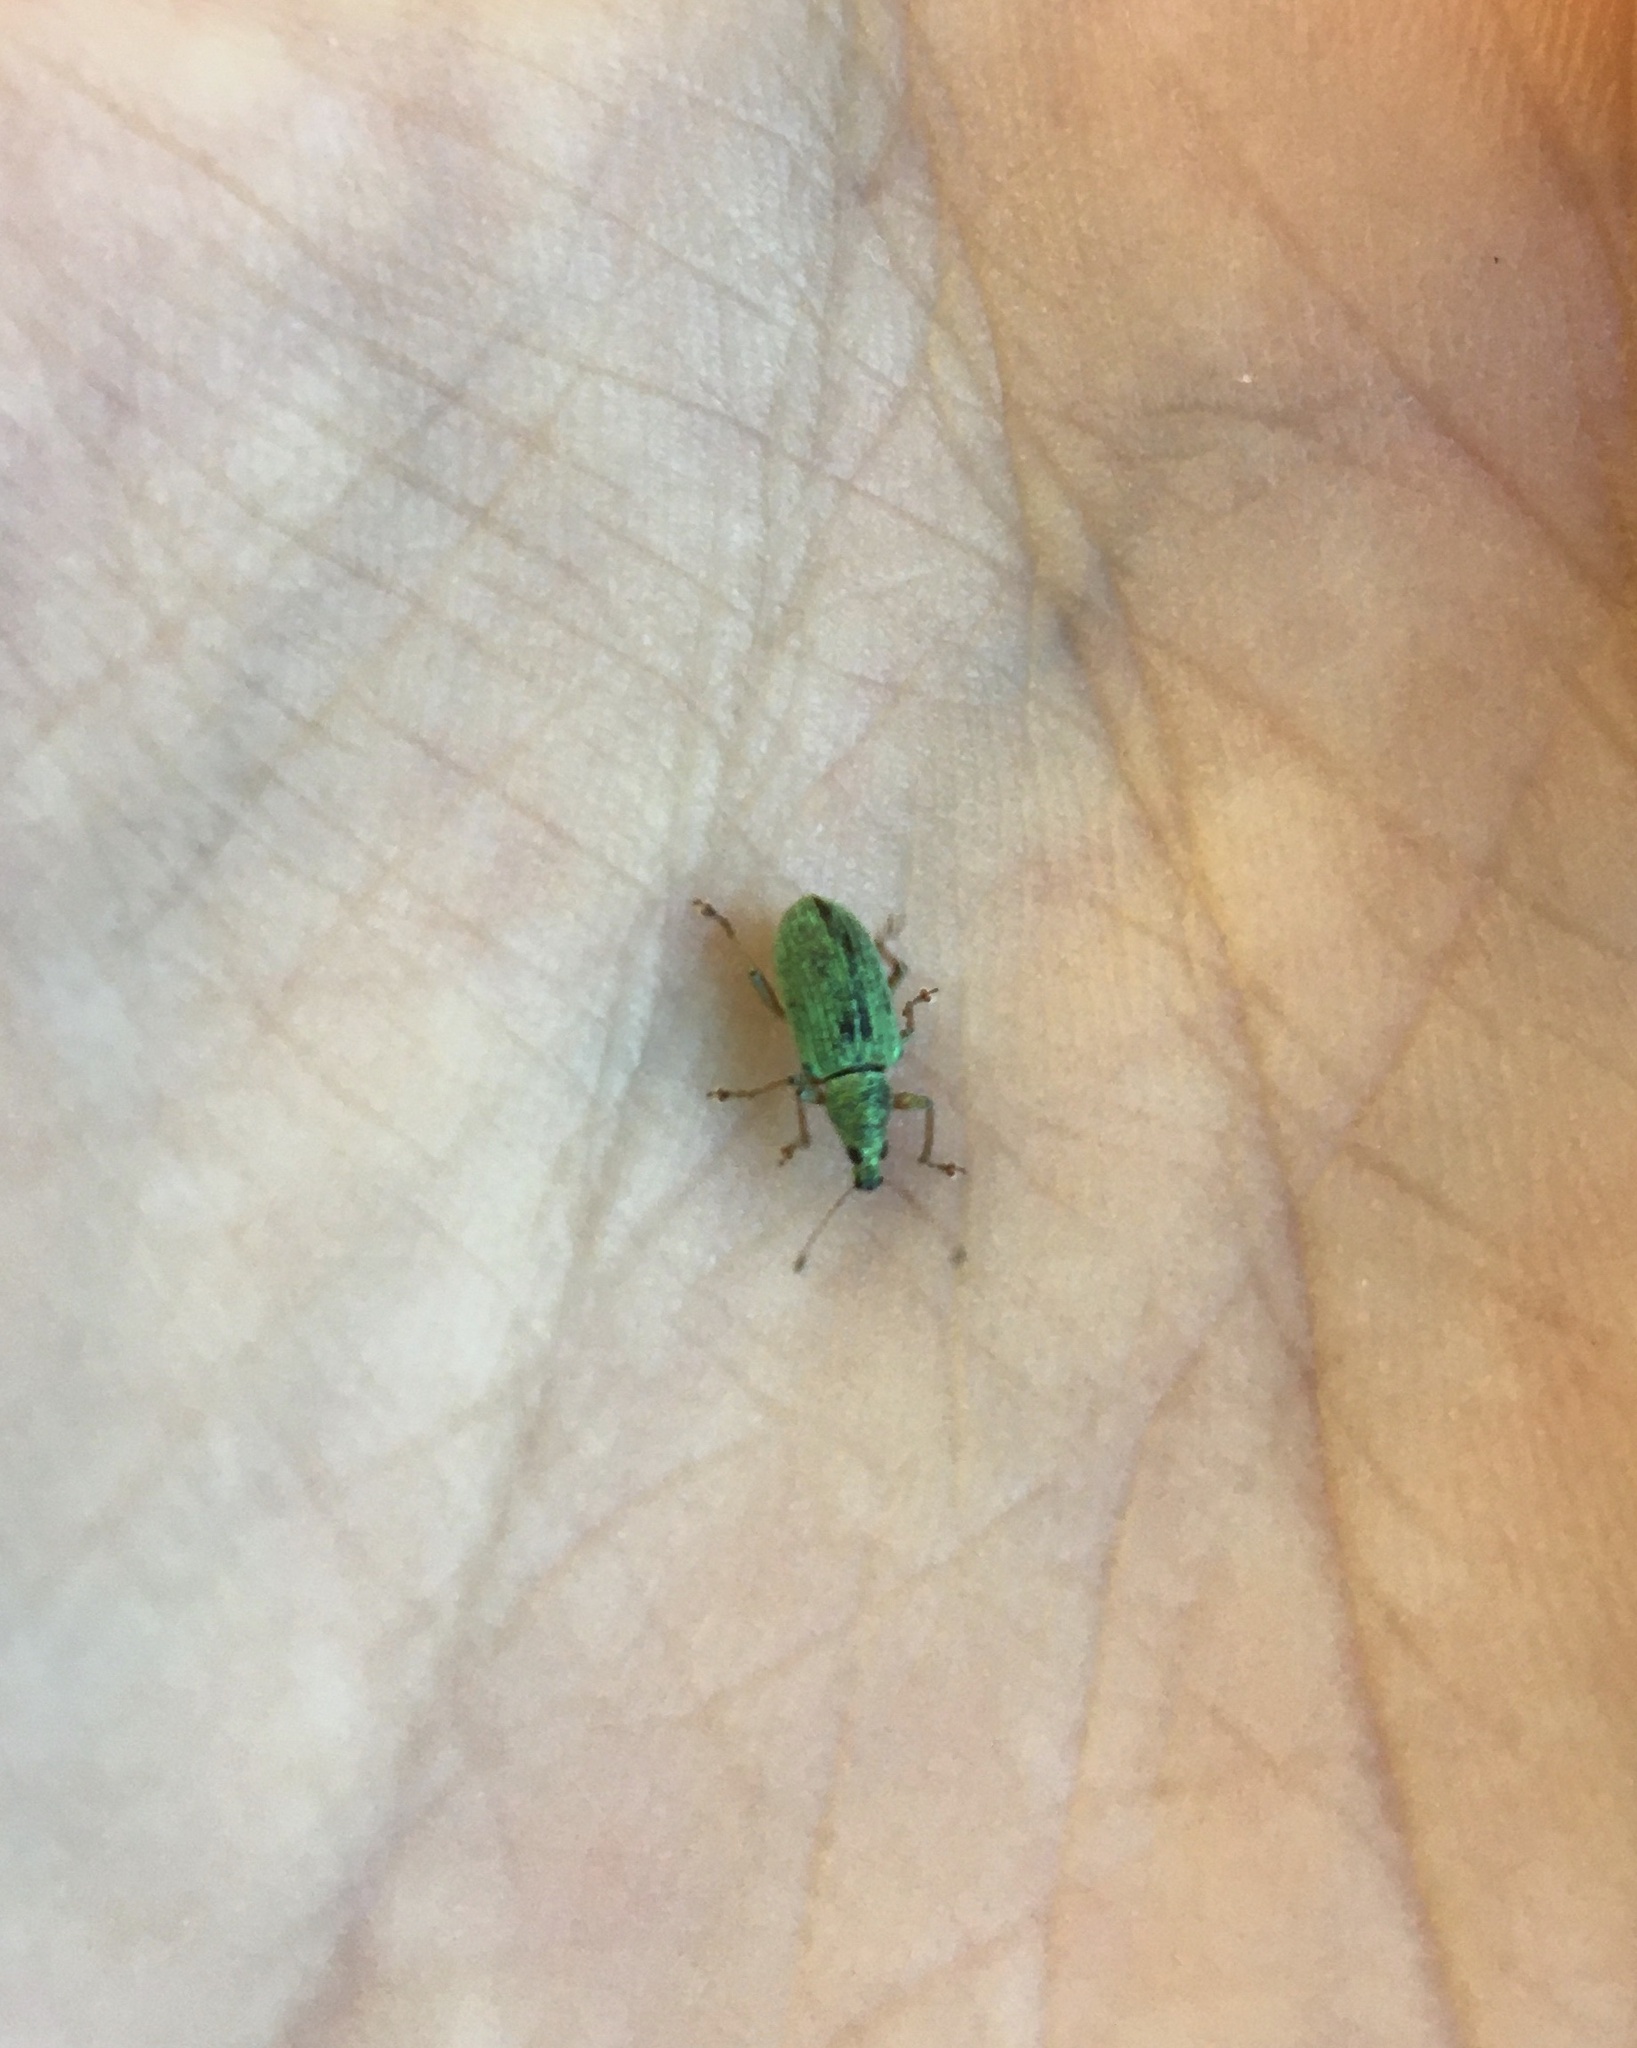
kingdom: Animalia
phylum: Arthropoda
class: Insecta
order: Coleoptera
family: Curculionidae
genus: Polydrusus
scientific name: Polydrusus formosus
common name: Weevil
